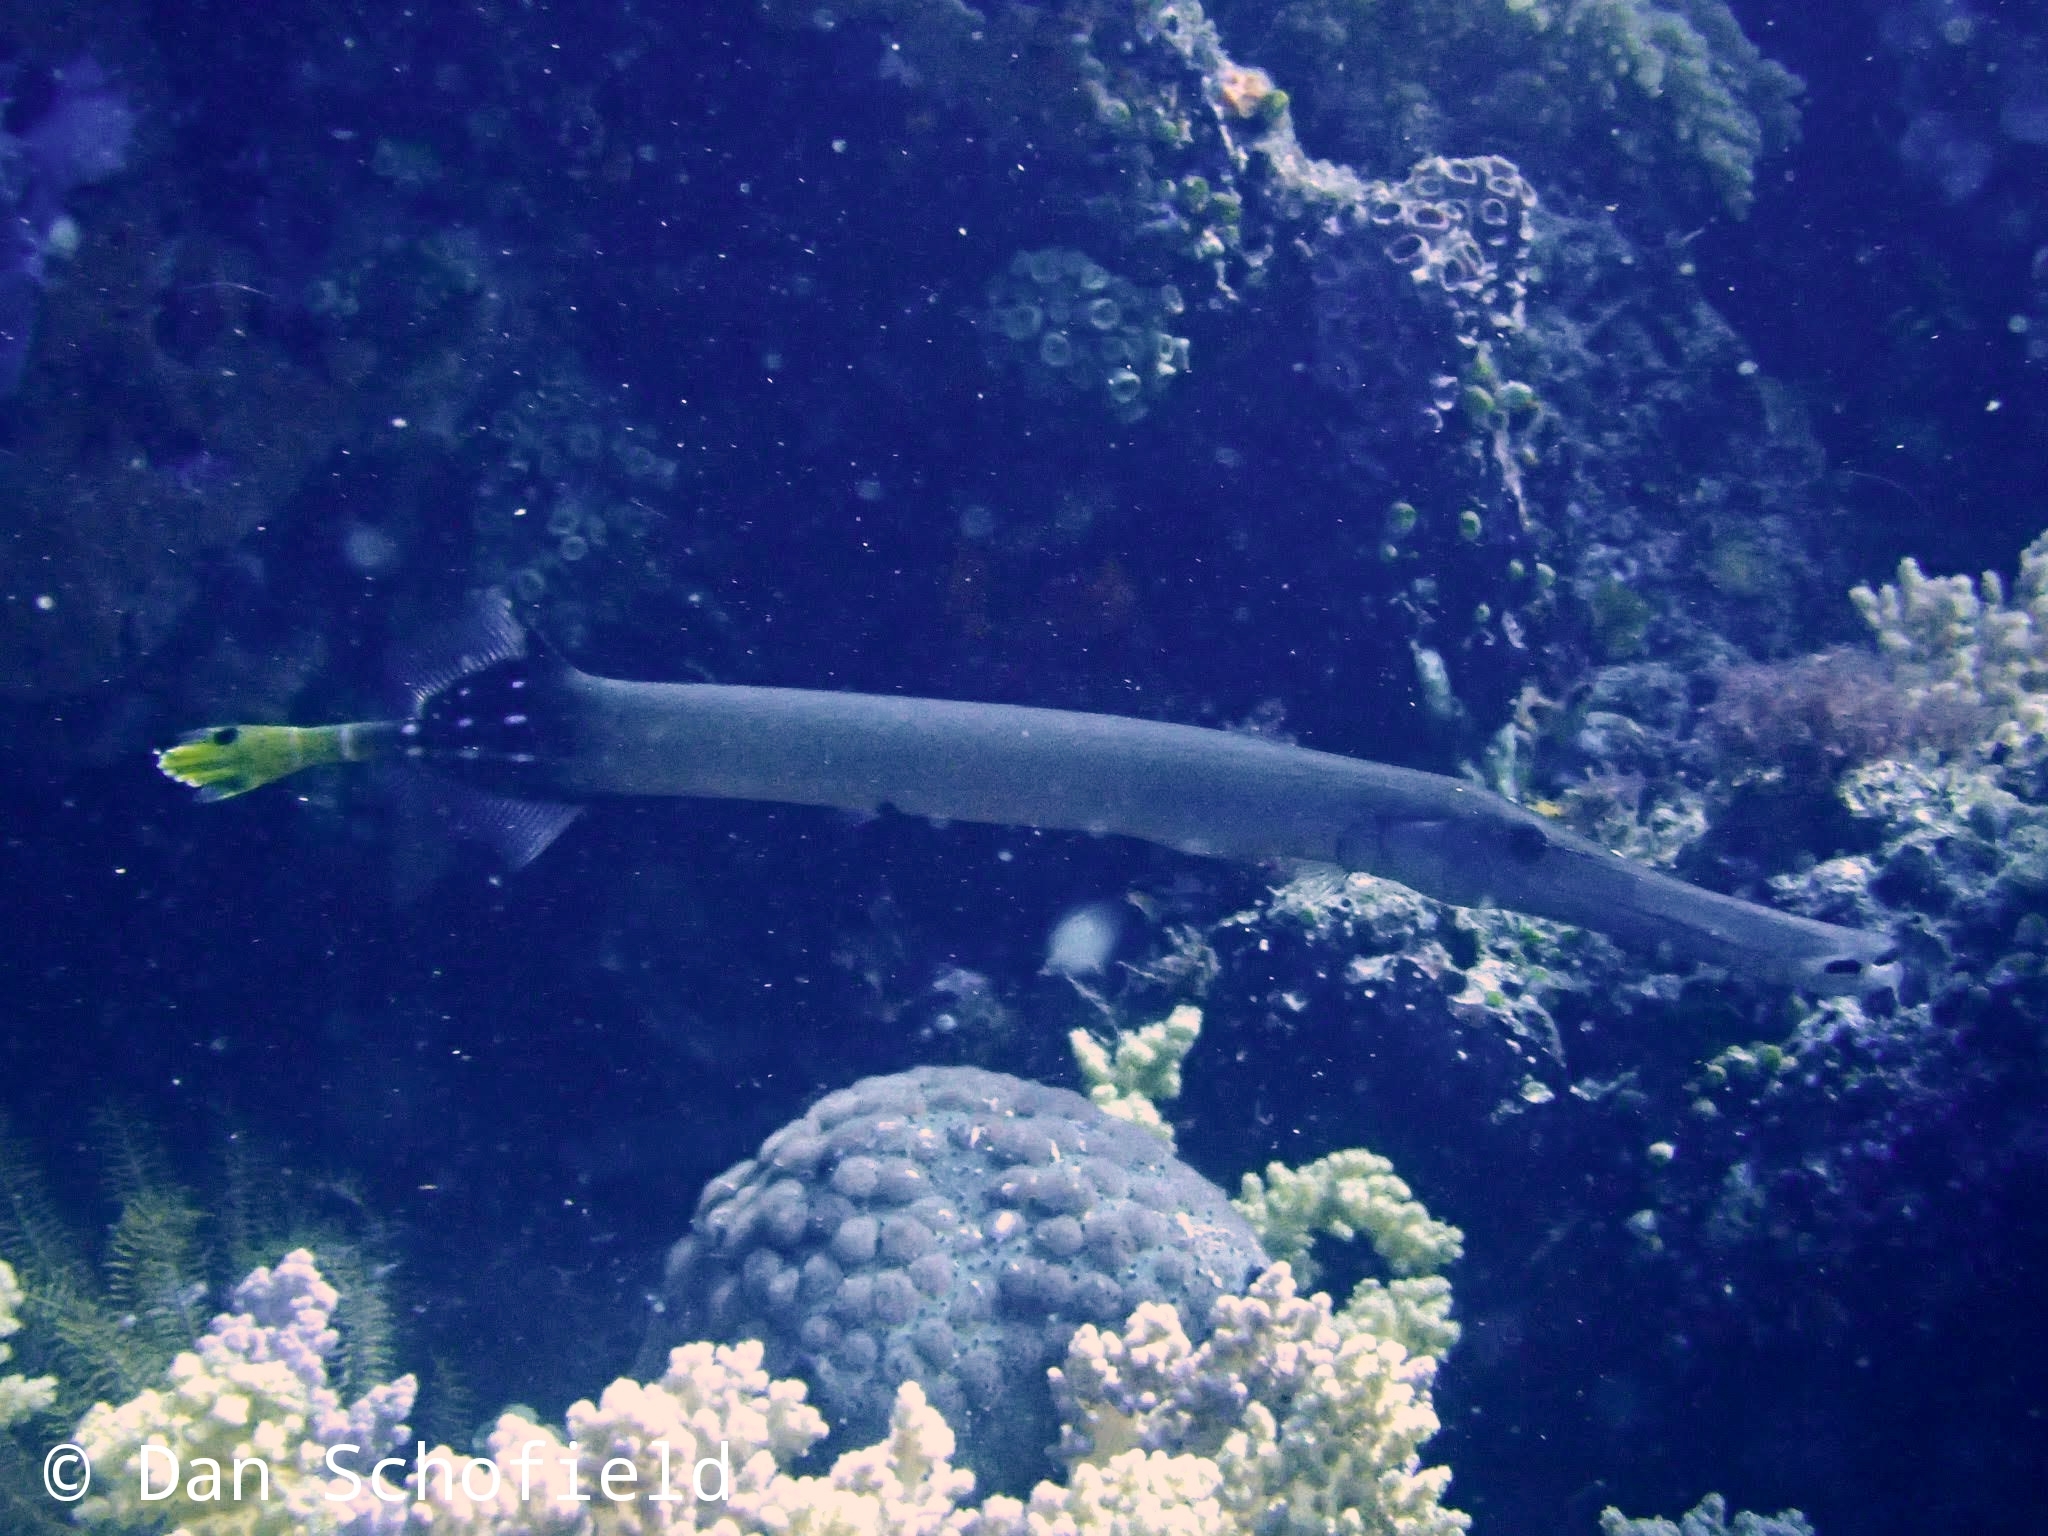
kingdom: Animalia
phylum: Chordata
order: Syngnathiformes
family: Aulostomidae
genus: Aulostomus
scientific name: Aulostomus chinensis
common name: Chinese trumpetfish
